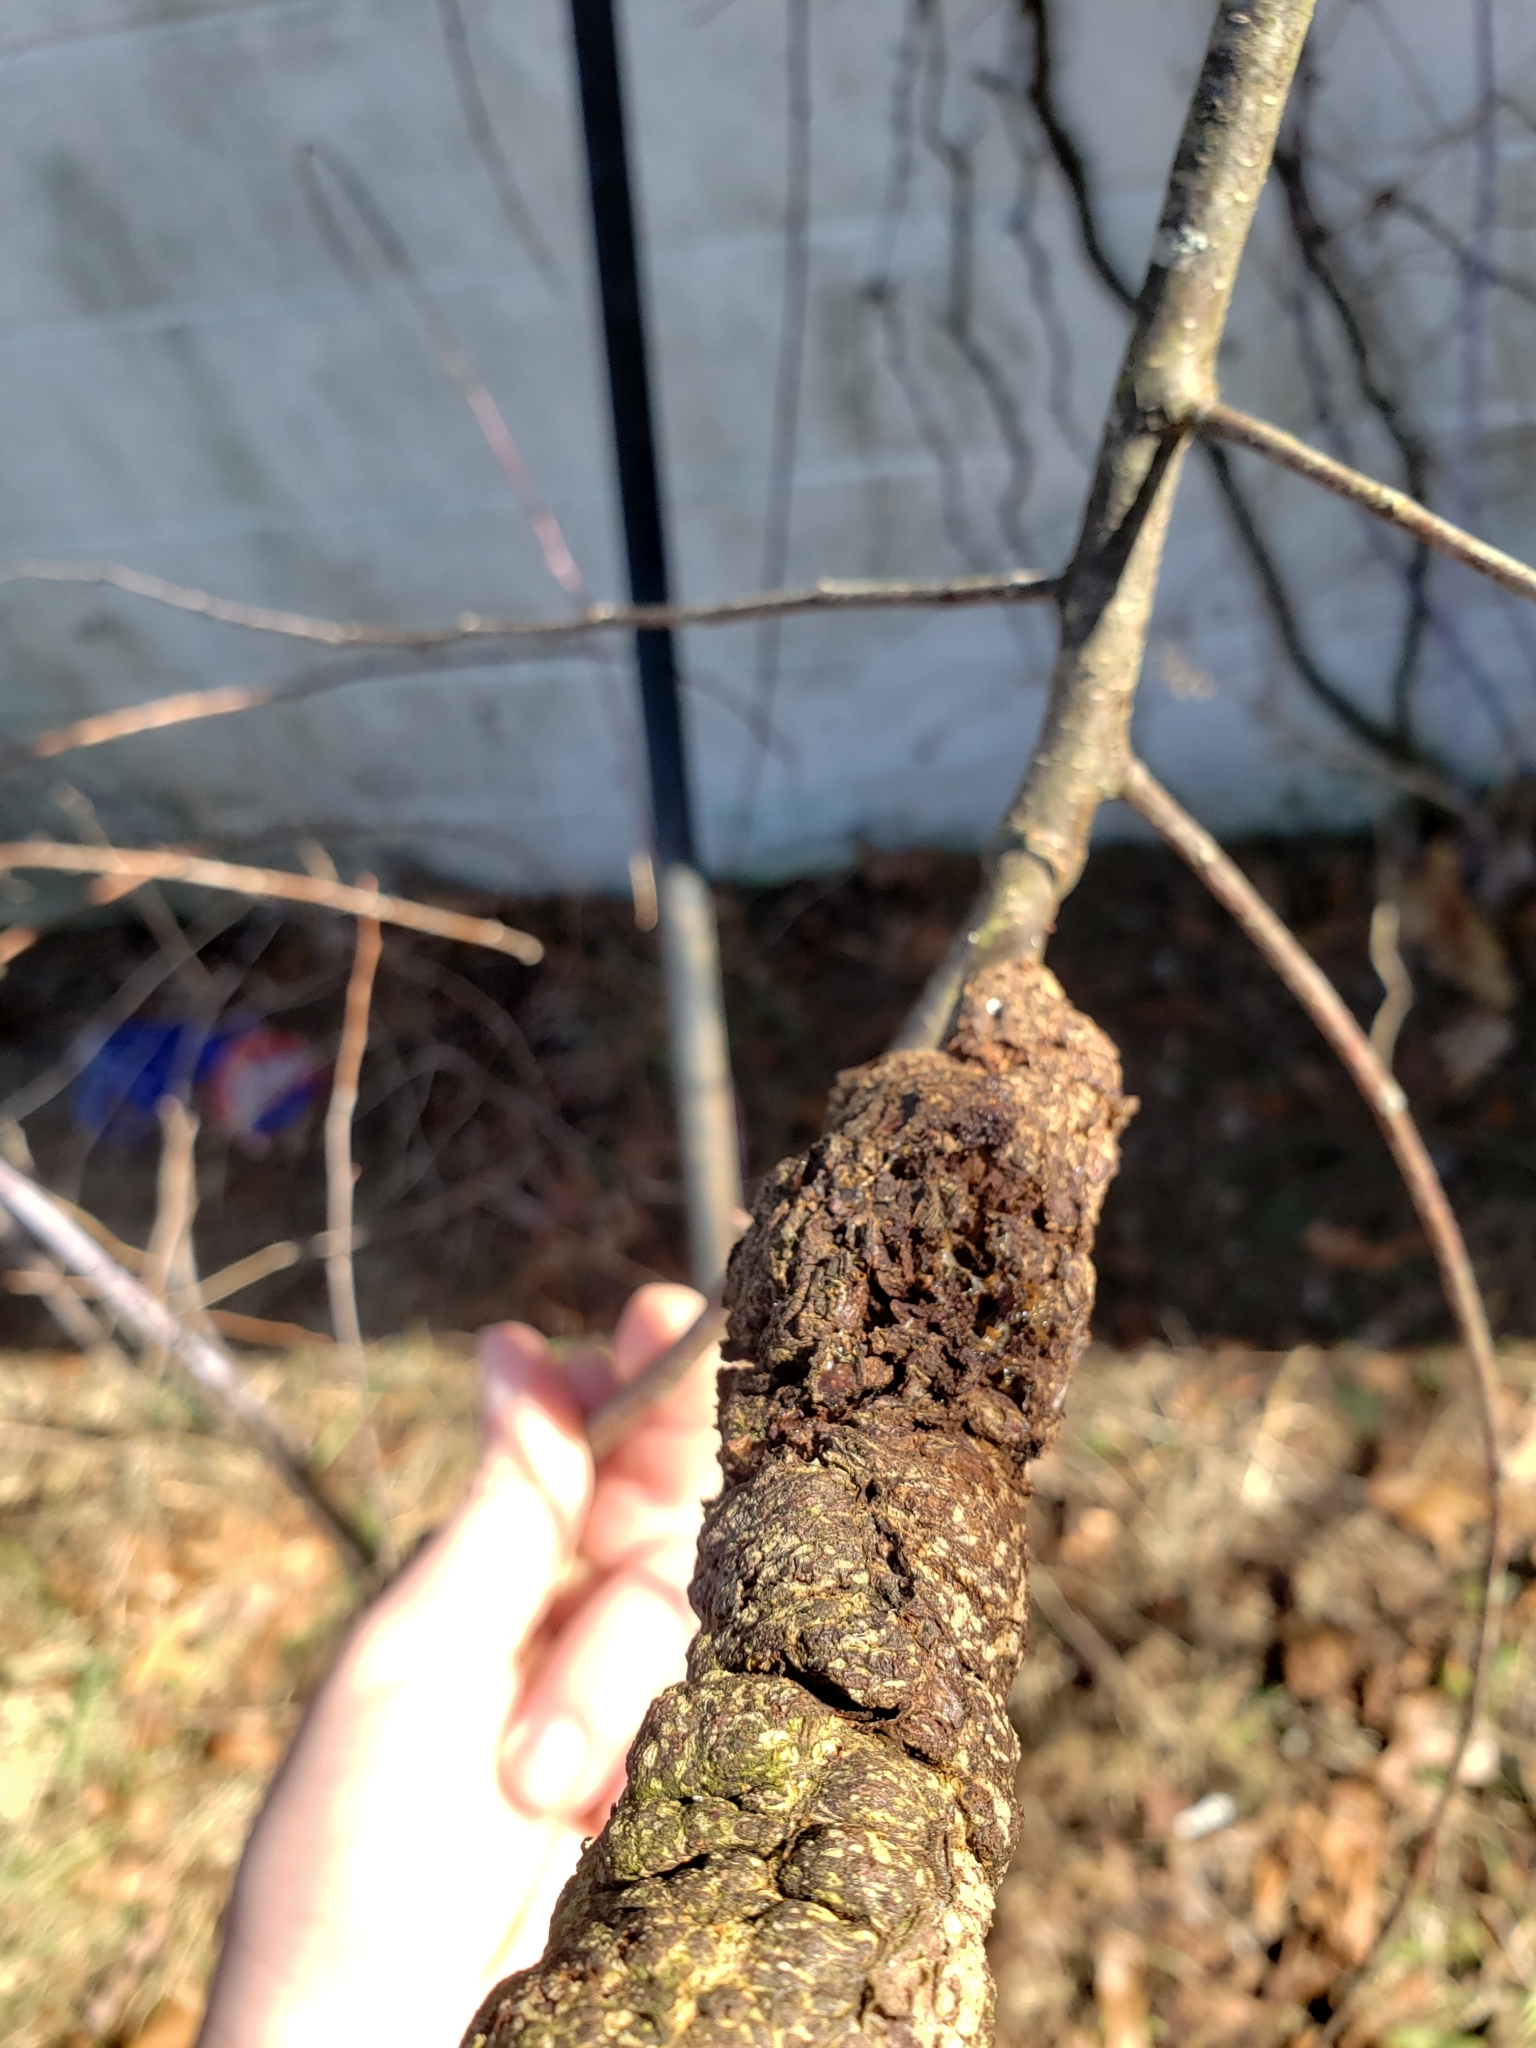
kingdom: Fungi
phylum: Ascomycota
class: Dothideomycetes
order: Venturiales
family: Venturiaceae
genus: Apiosporina
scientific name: Apiosporina morbosa
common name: Black knot
